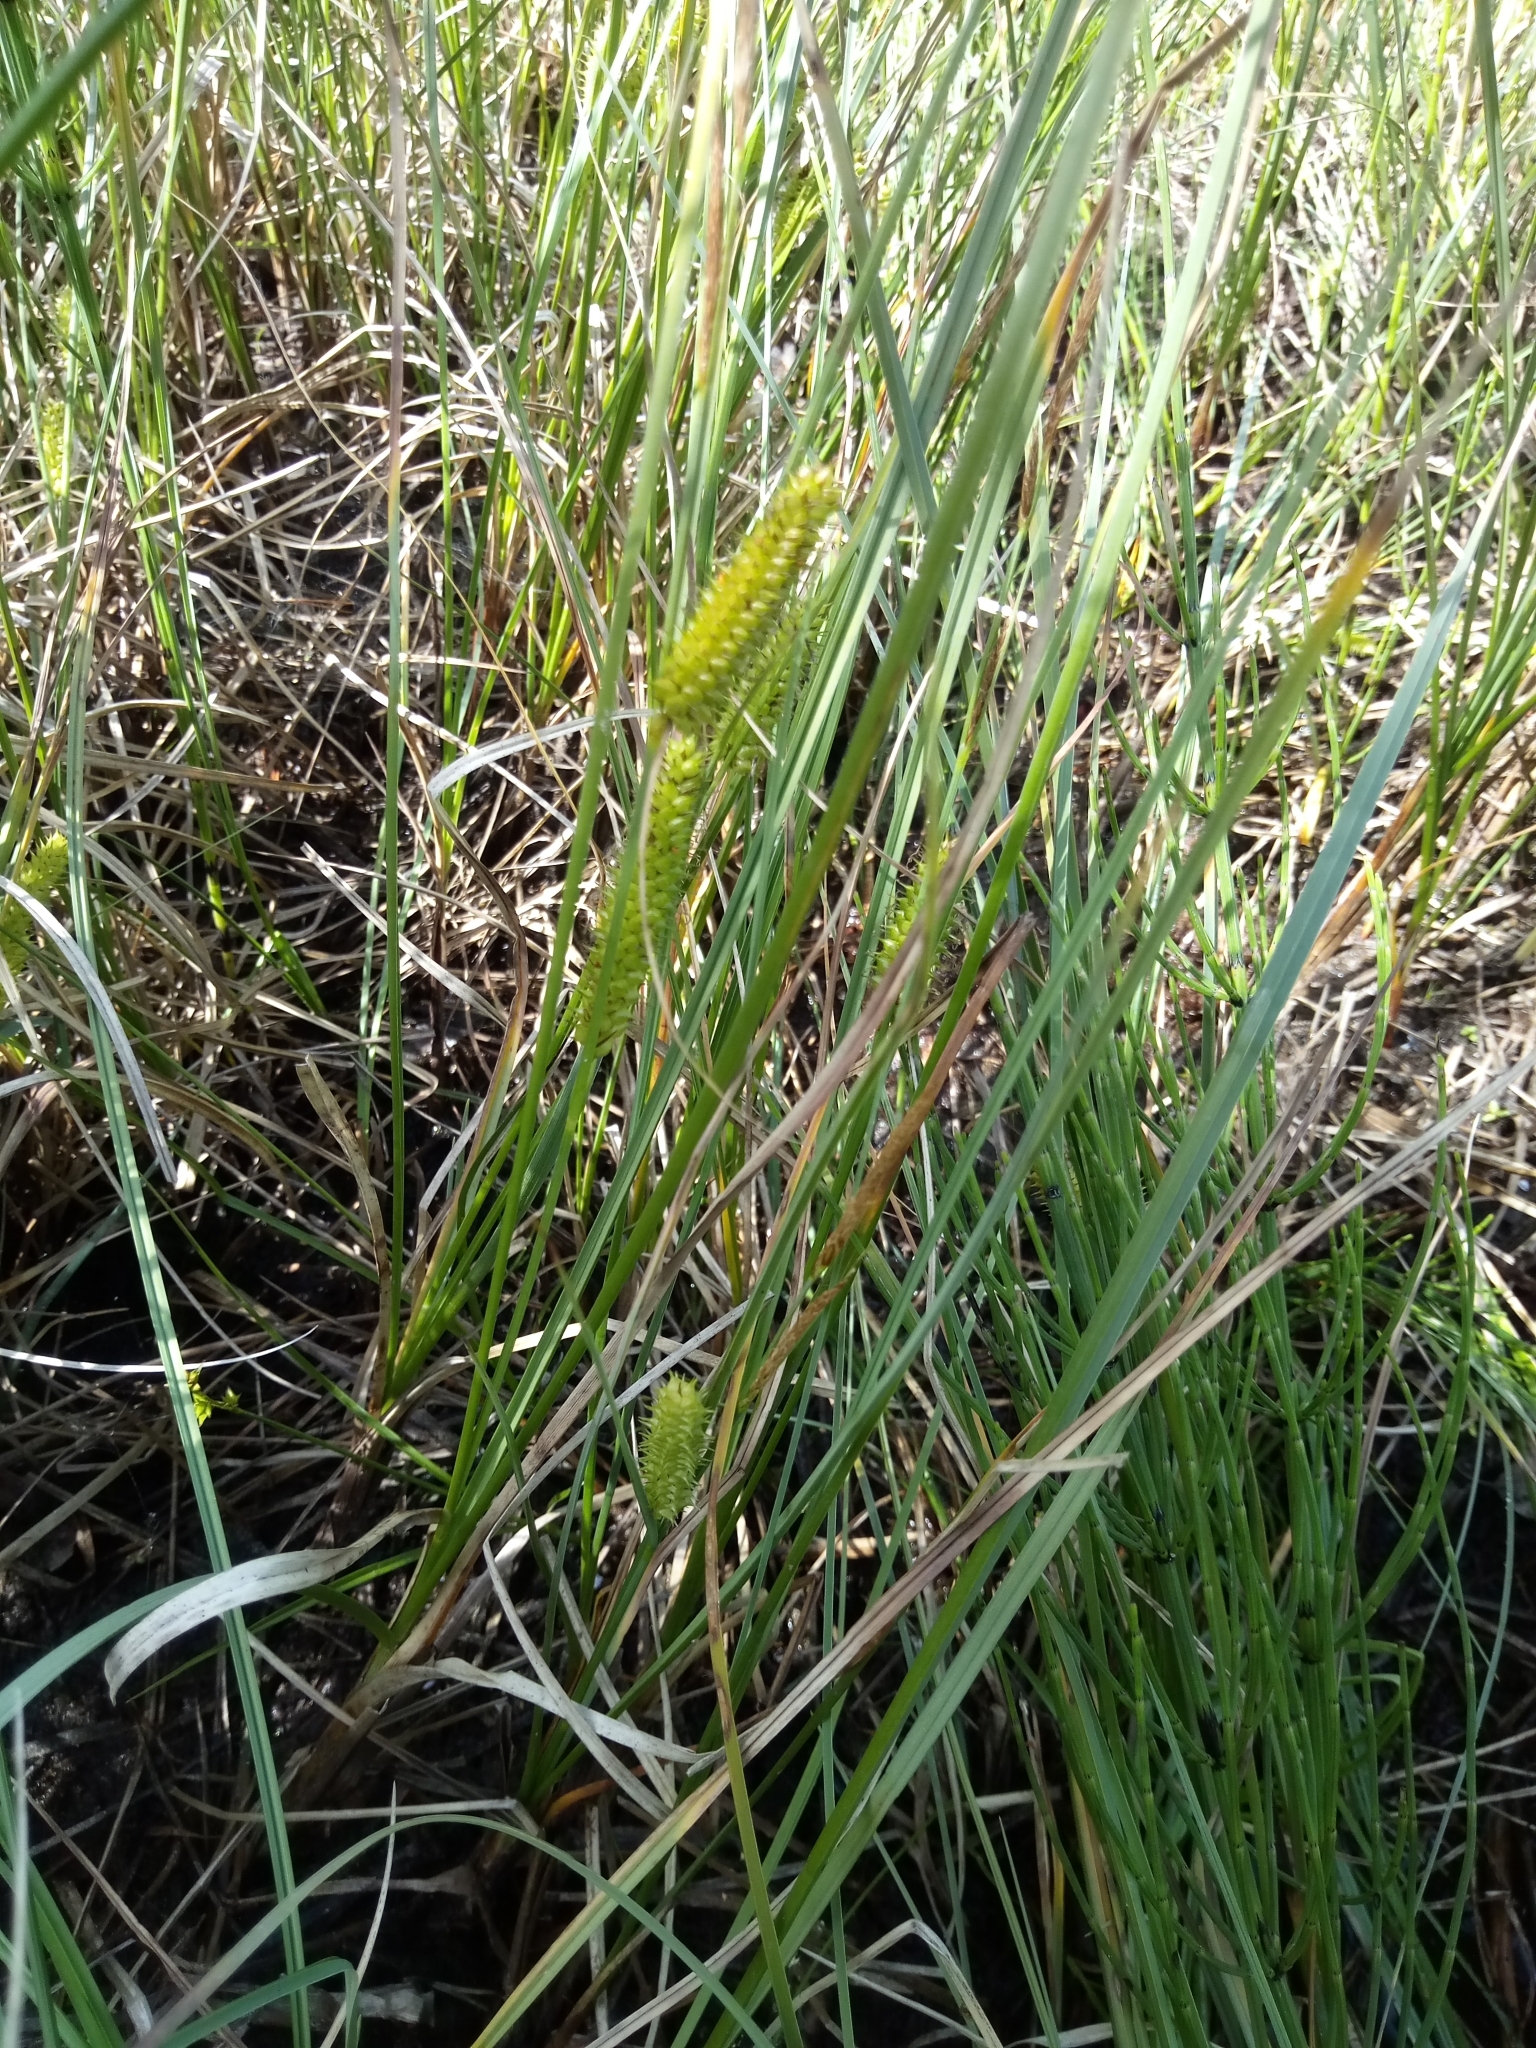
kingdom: Plantae
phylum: Tracheophyta
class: Liliopsida
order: Poales
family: Cyperaceae
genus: Carex
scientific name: Carex rostrata
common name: Bottle sedge
